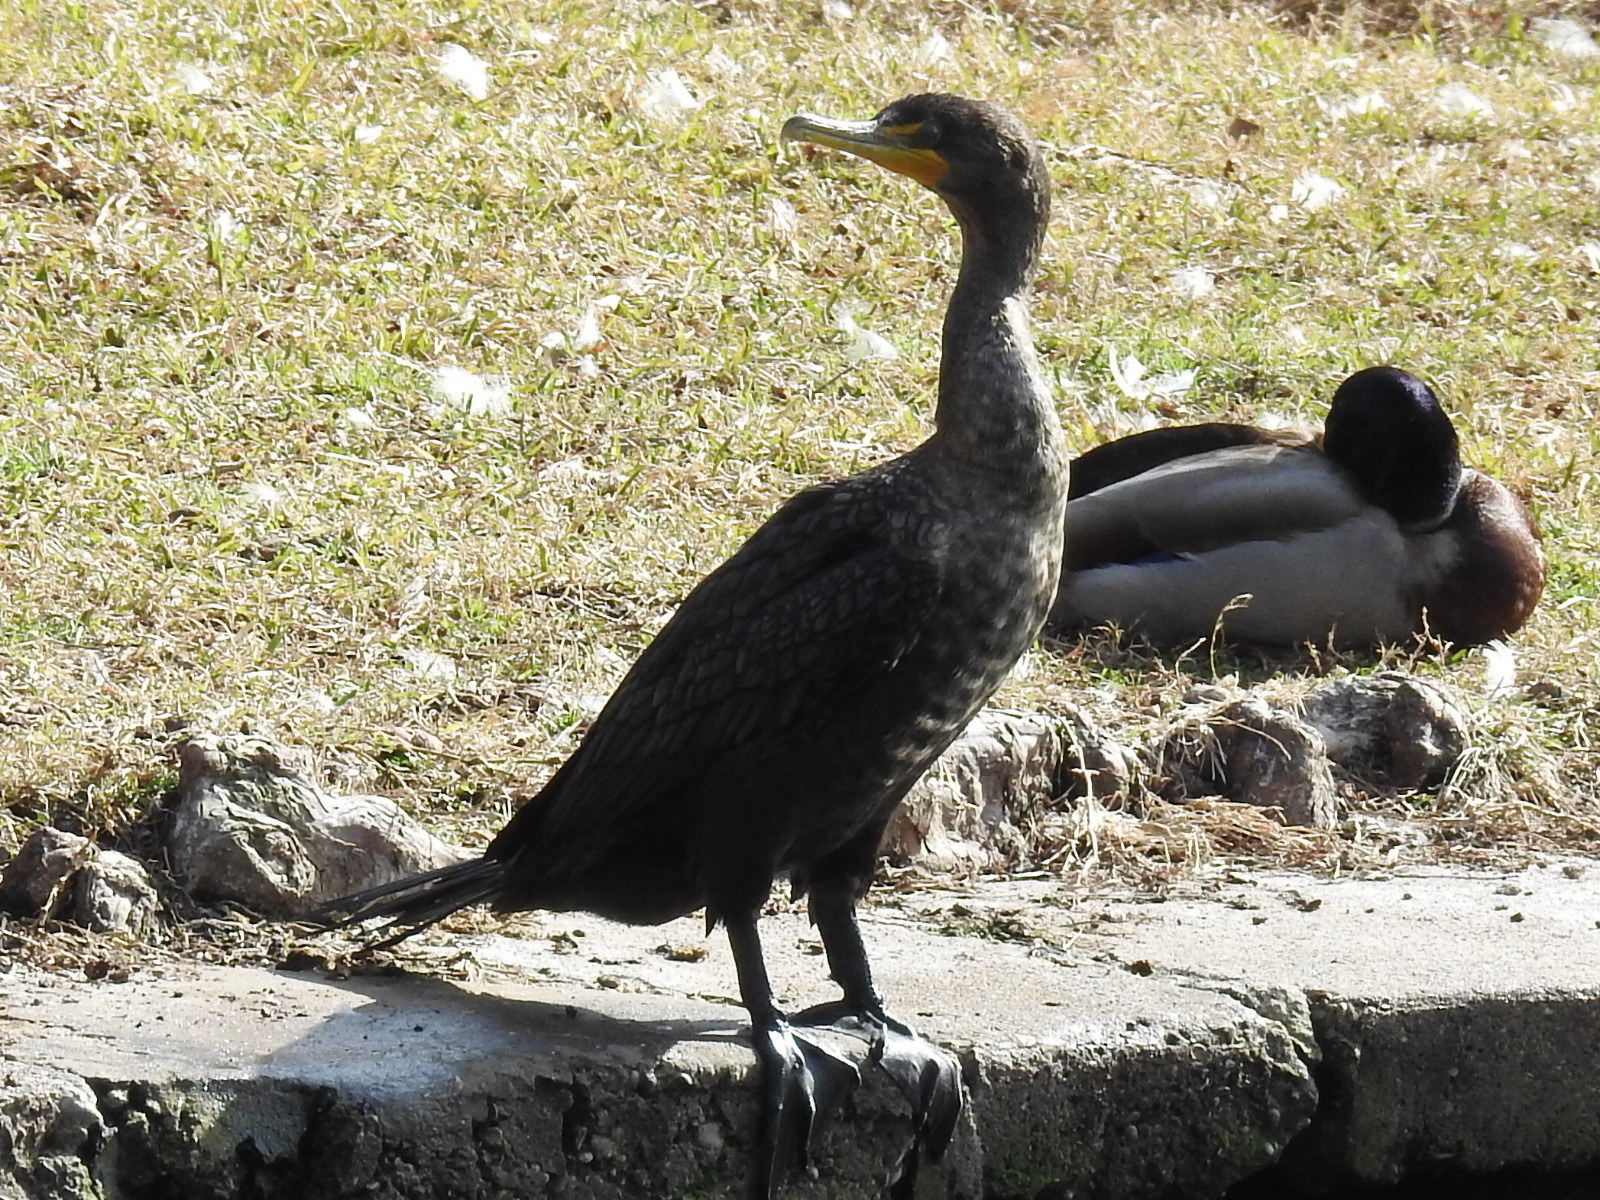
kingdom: Animalia
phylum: Chordata
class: Aves
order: Suliformes
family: Phalacrocoracidae
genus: Phalacrocorax
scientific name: Phalacrocorax auritus
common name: Double-crested cormorant
